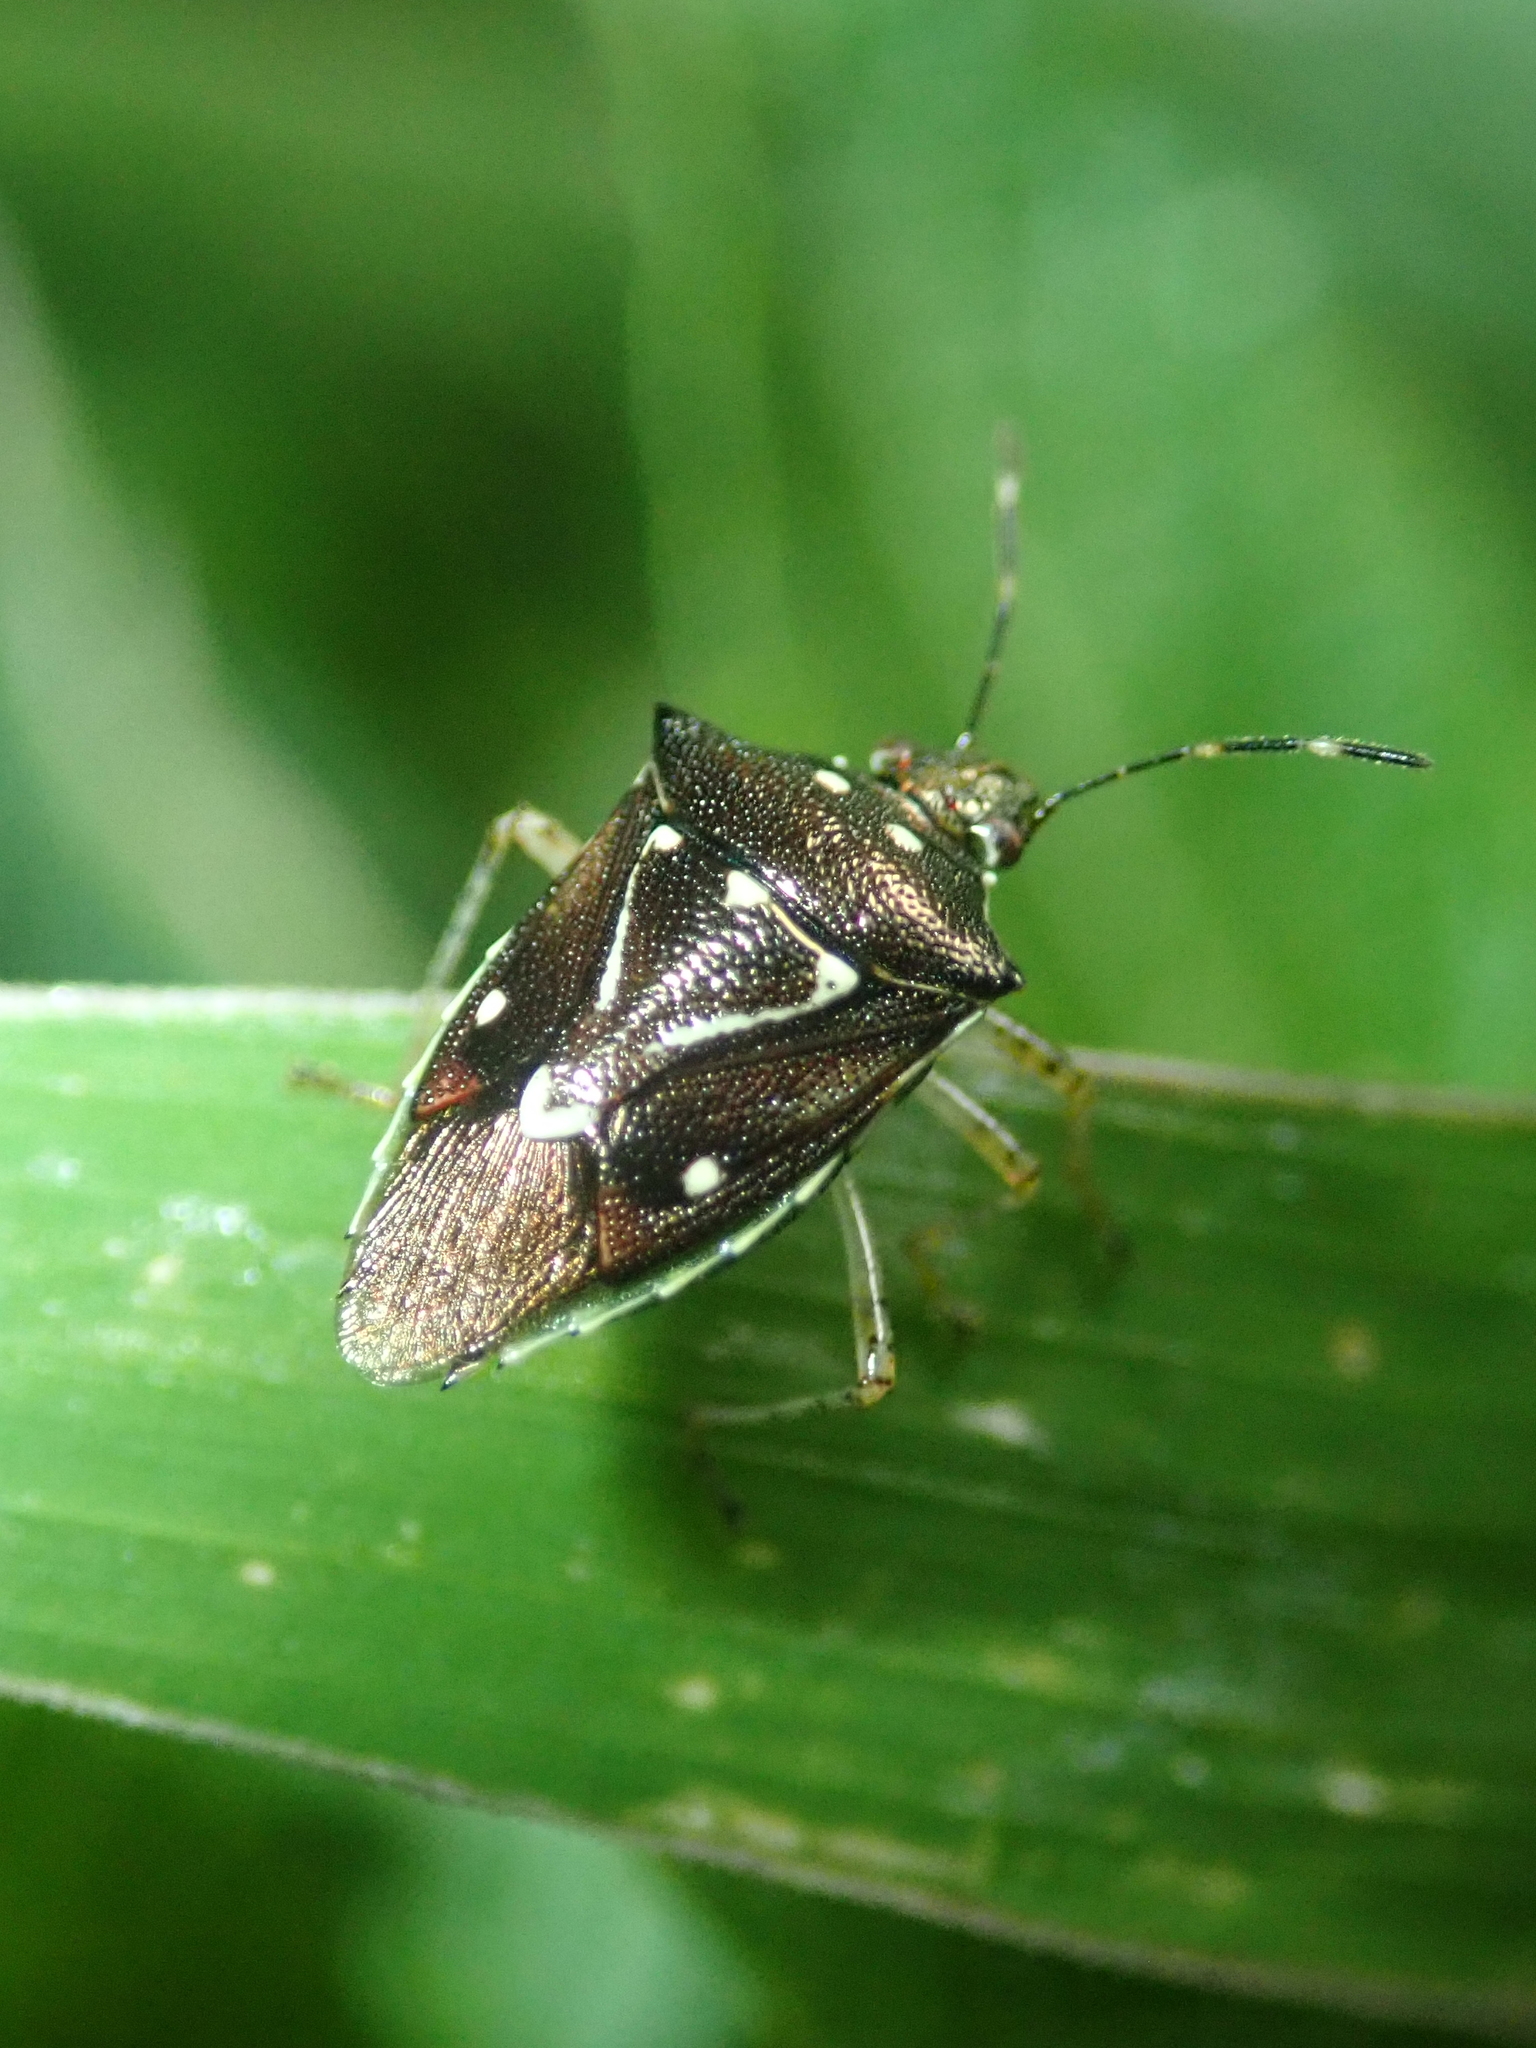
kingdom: Animalia
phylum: Arthropoda
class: Insecta
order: Hemiptera
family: Pentatomidae
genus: Mormidea
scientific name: Mormidea v-luteum
